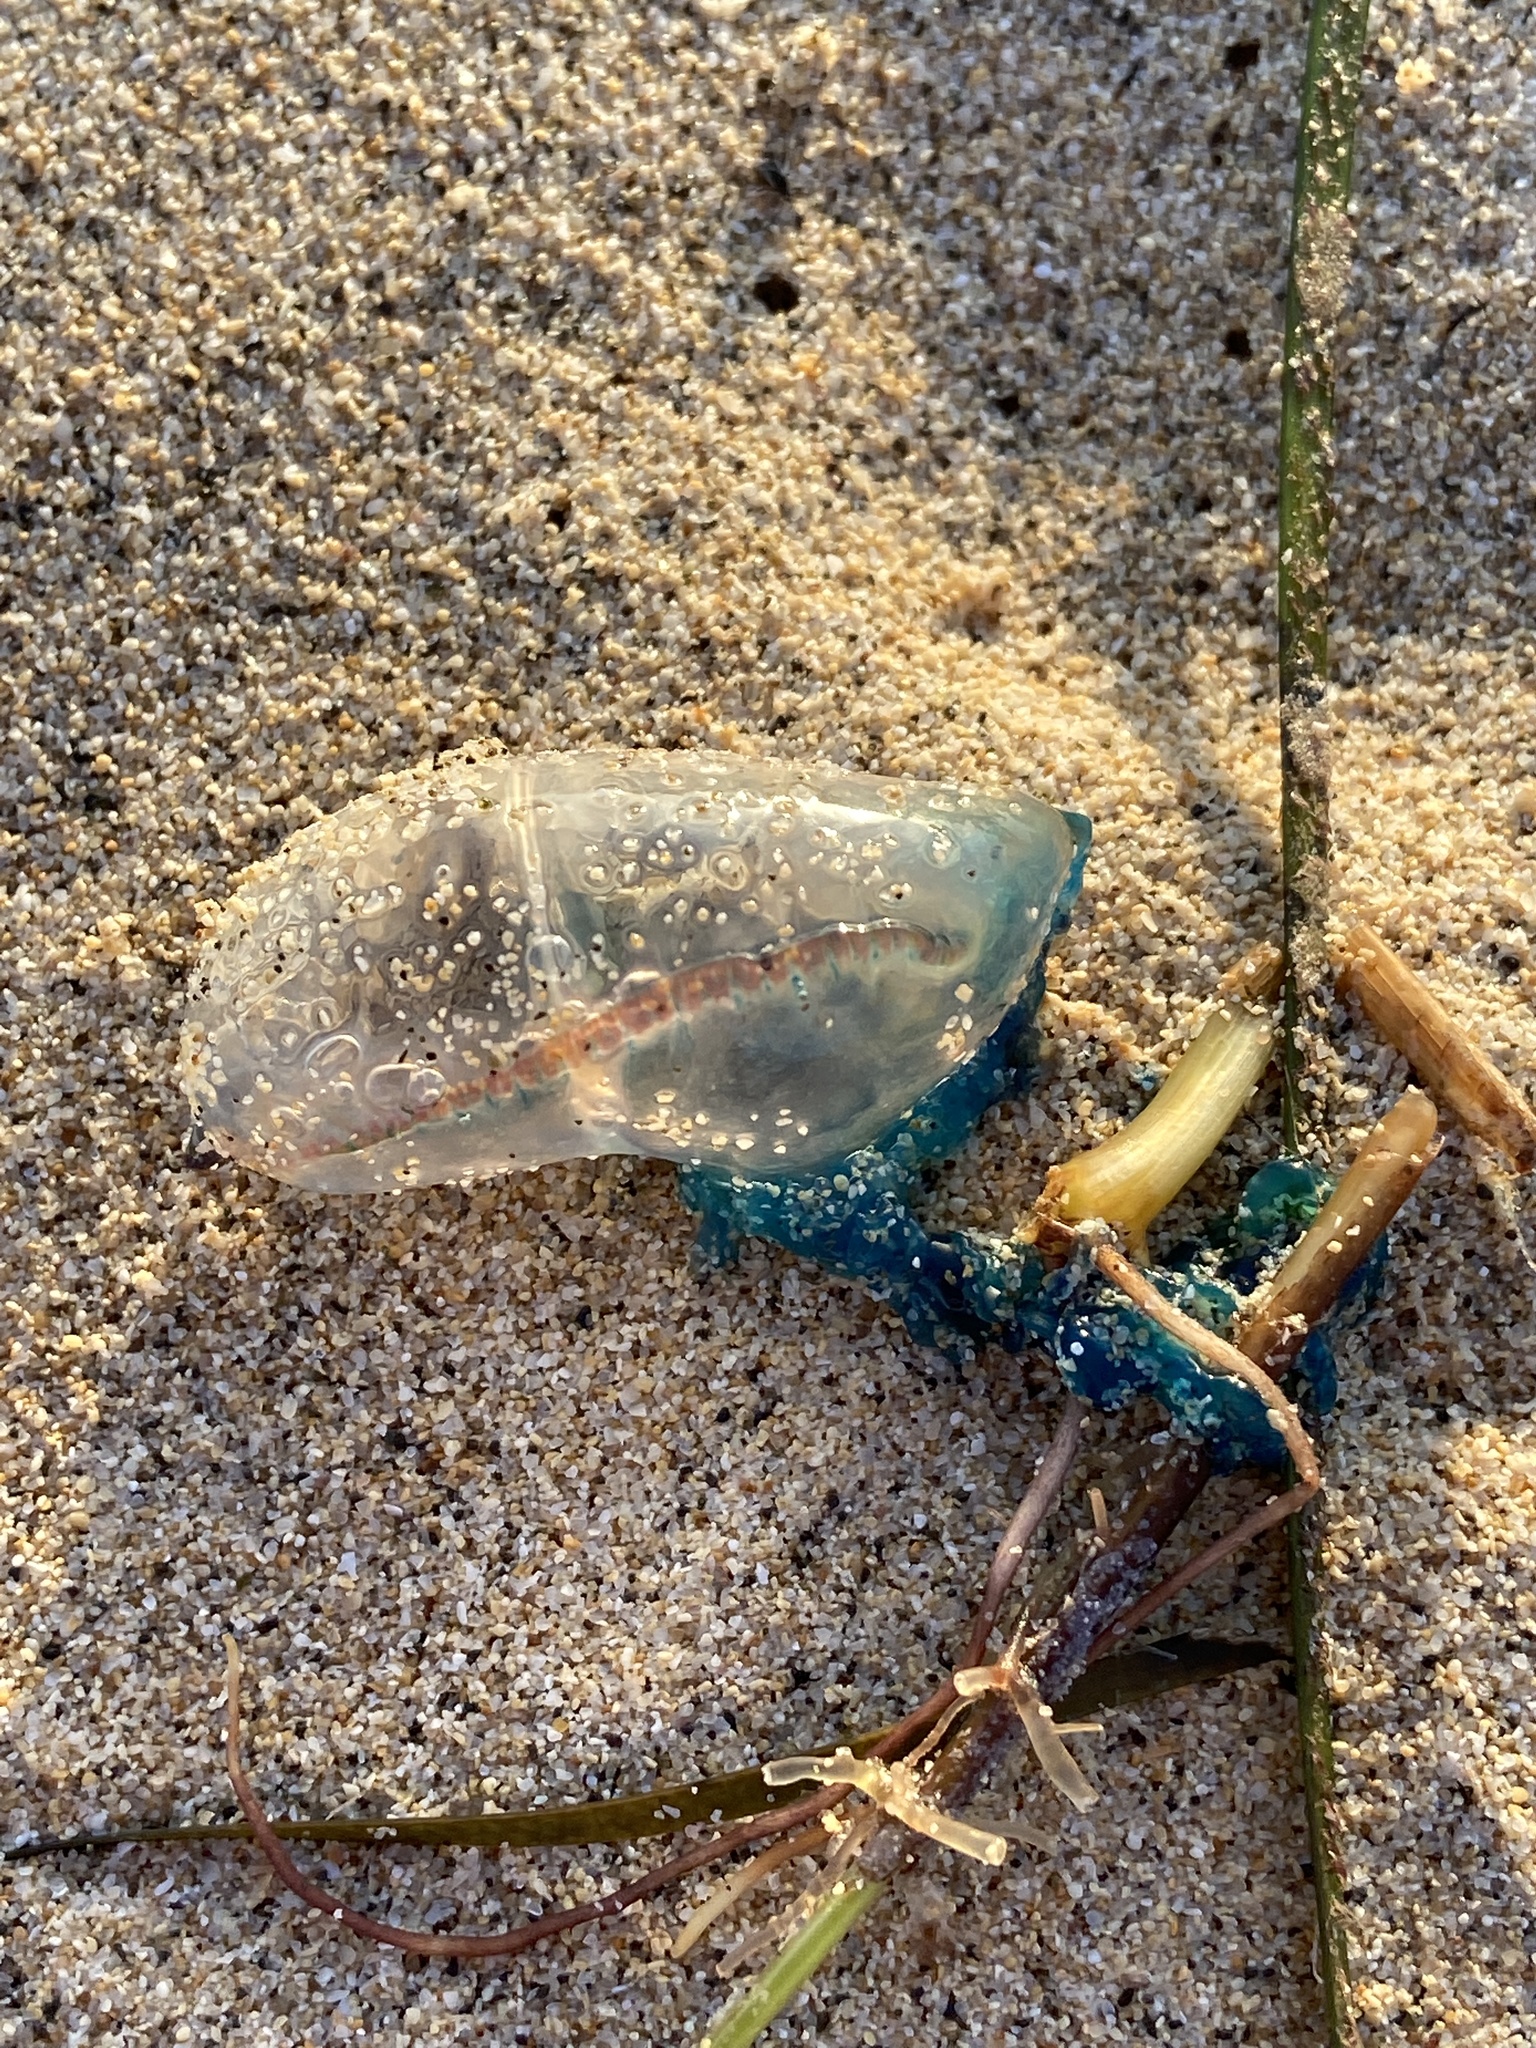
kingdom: Animalia
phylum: Cnidaria
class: Hydrozoa
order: Siphonophorae
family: Physaliidae
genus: Physalia
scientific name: Physalia physalis
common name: Portuguese man-of-war
